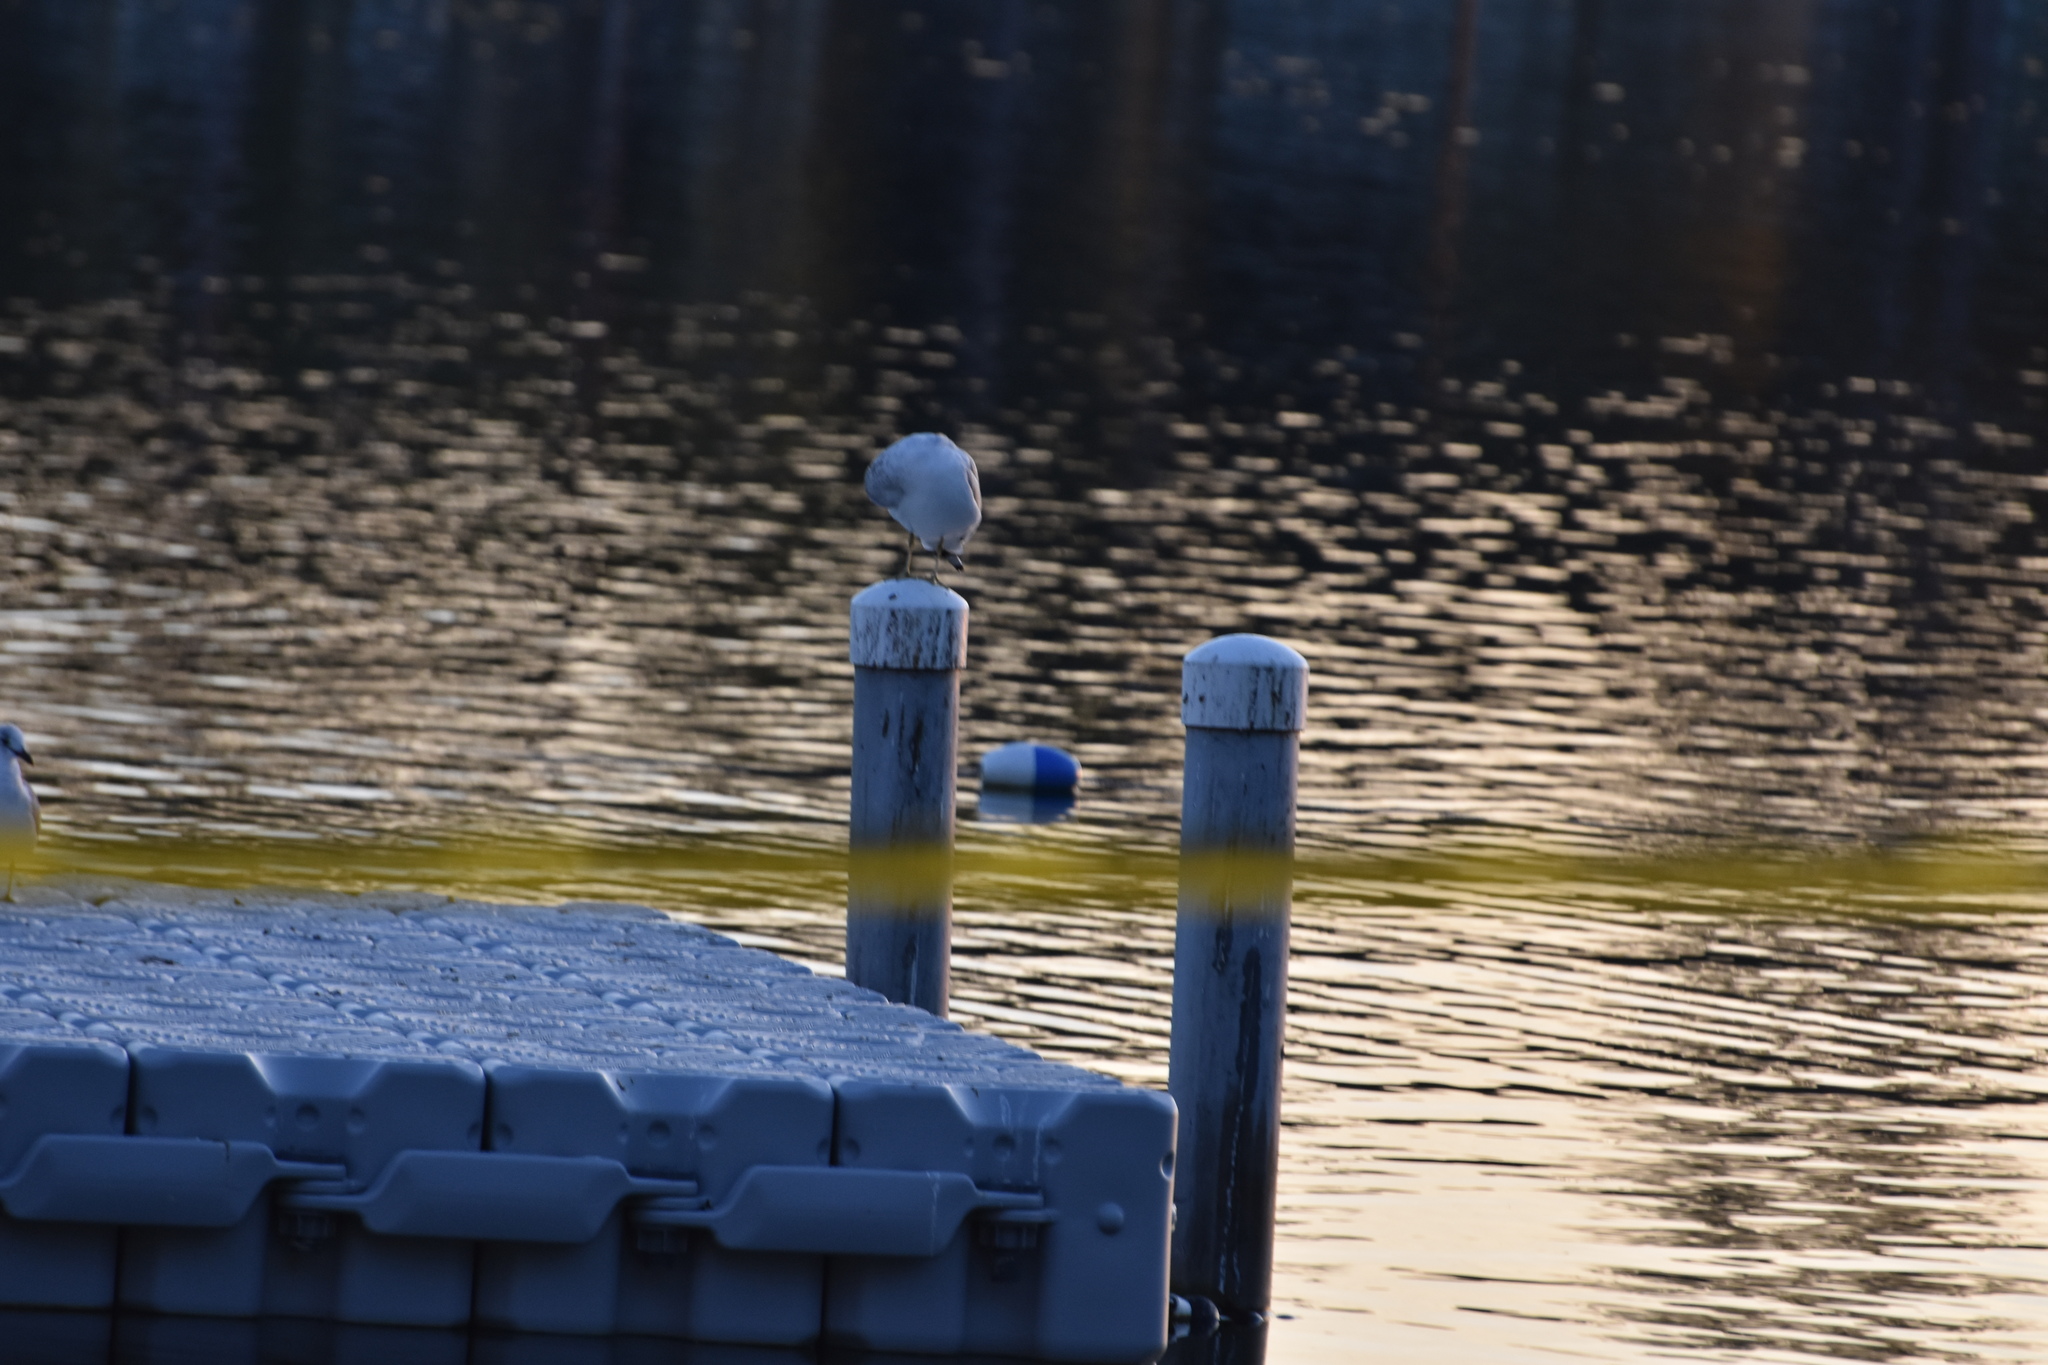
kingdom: Animalia
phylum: Chordata
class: Aves
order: Charadriiformes
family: Laridae
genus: Larus
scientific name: Larus delawarensis
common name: Ring-billed gull
